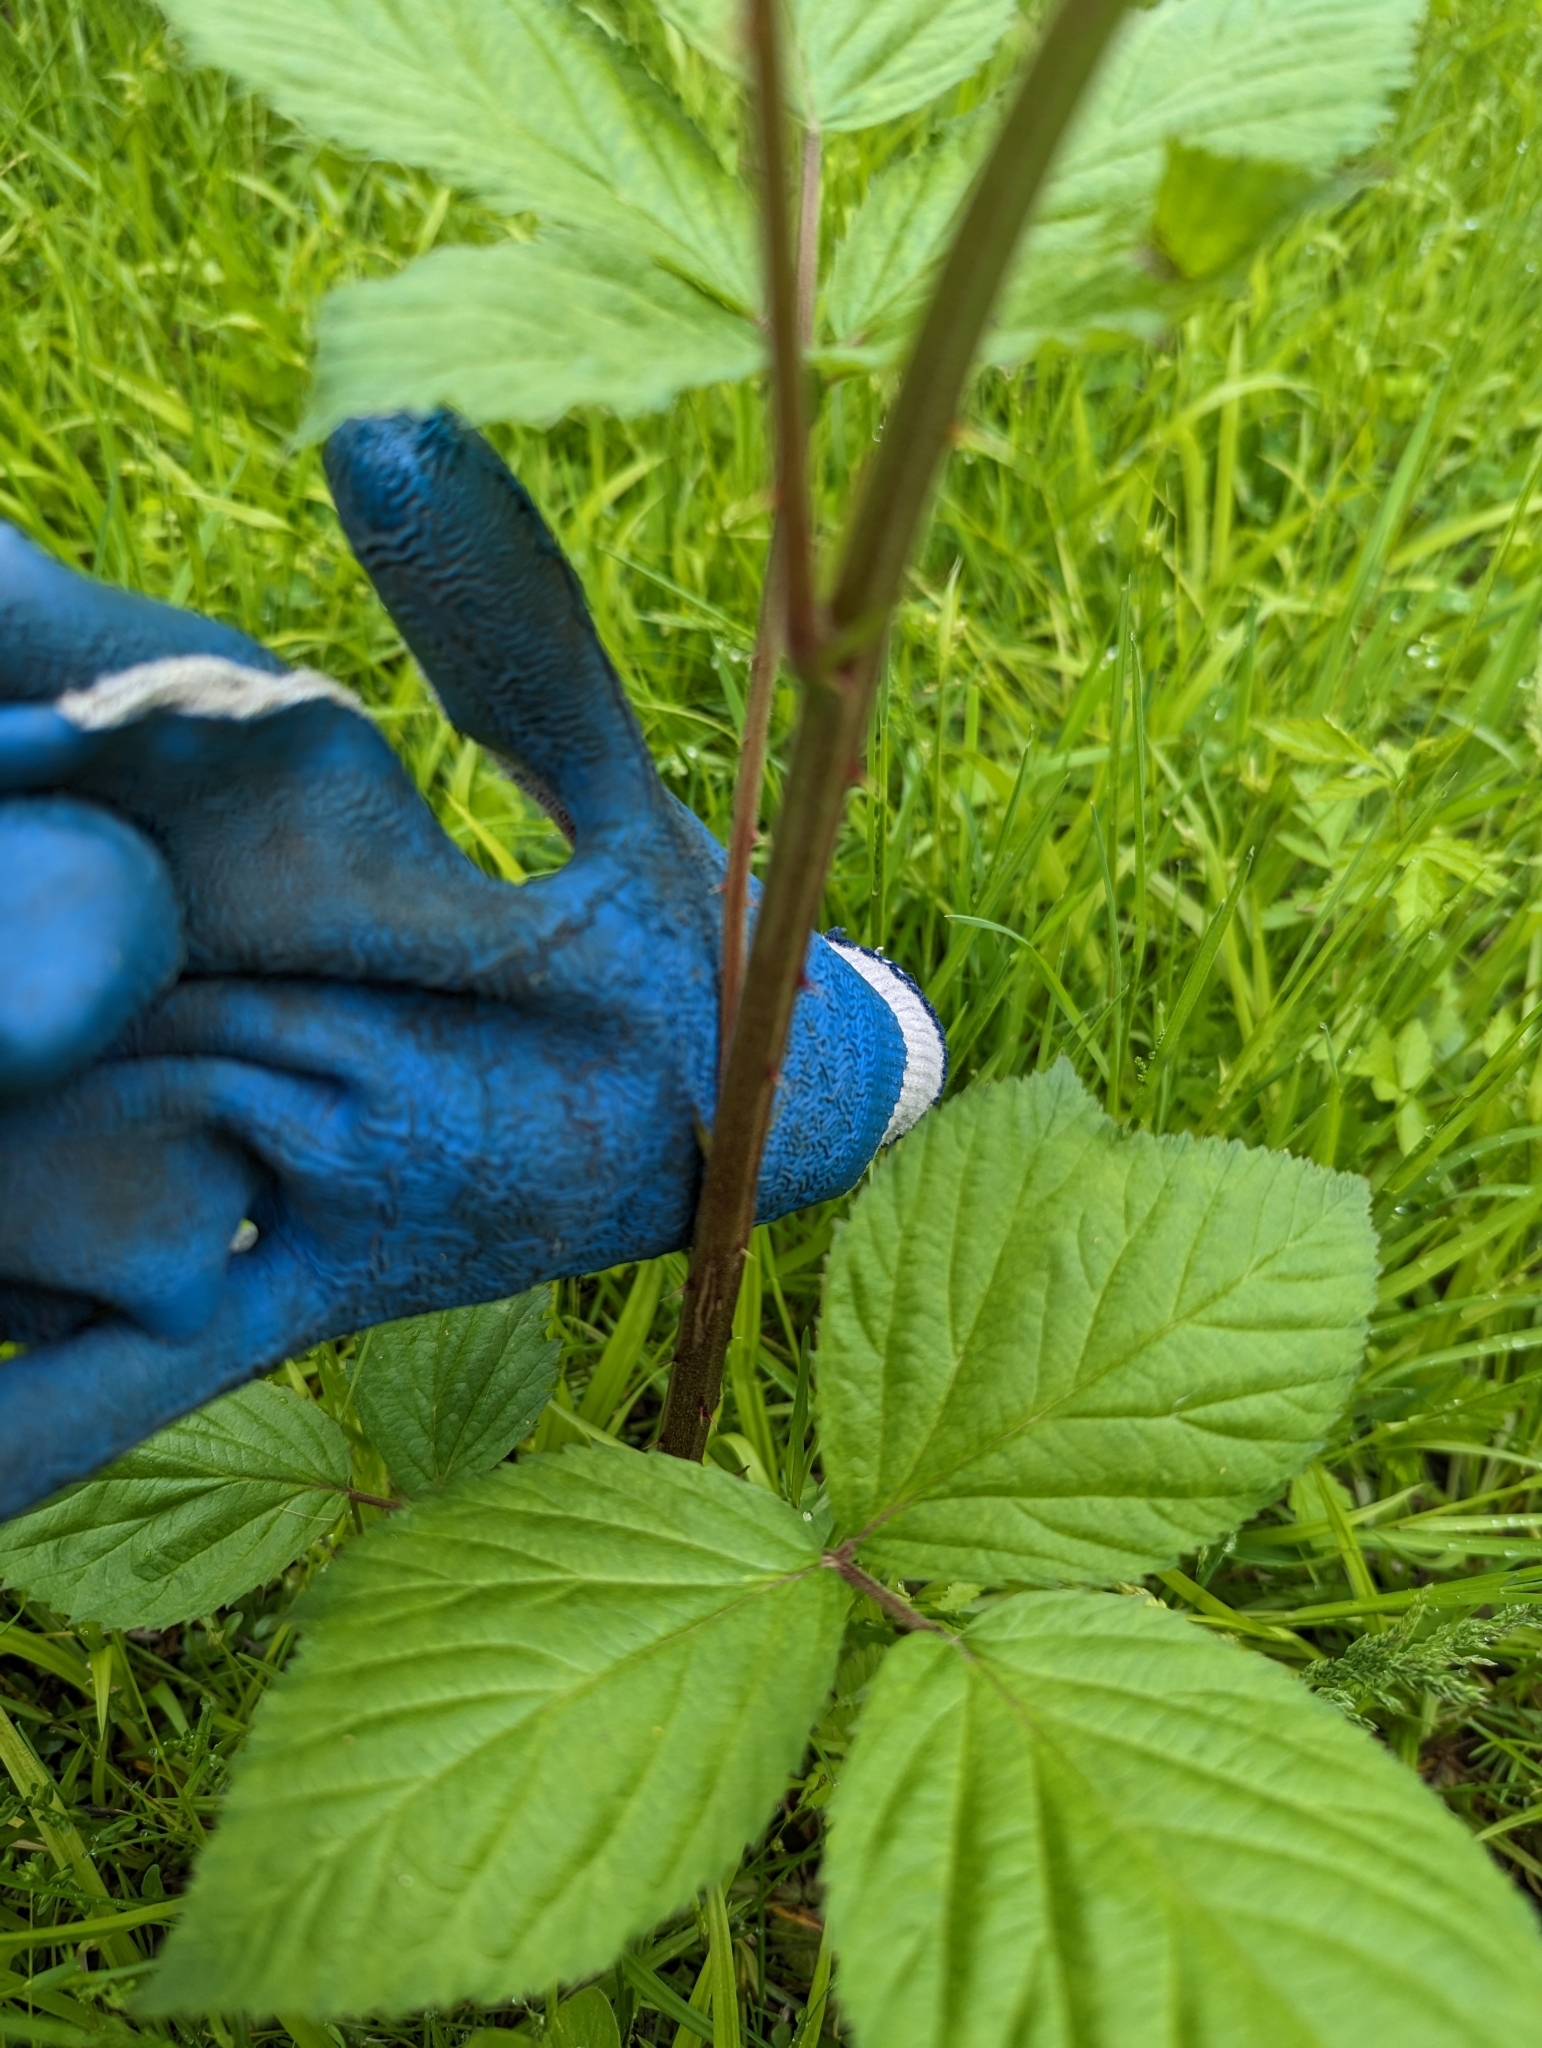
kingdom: Plantae
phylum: Tracheophyta
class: Magnoliopsida
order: Rosales
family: Rosaceae
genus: Rubus
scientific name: Rubus allegheniensis
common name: Allegheny blackberry
